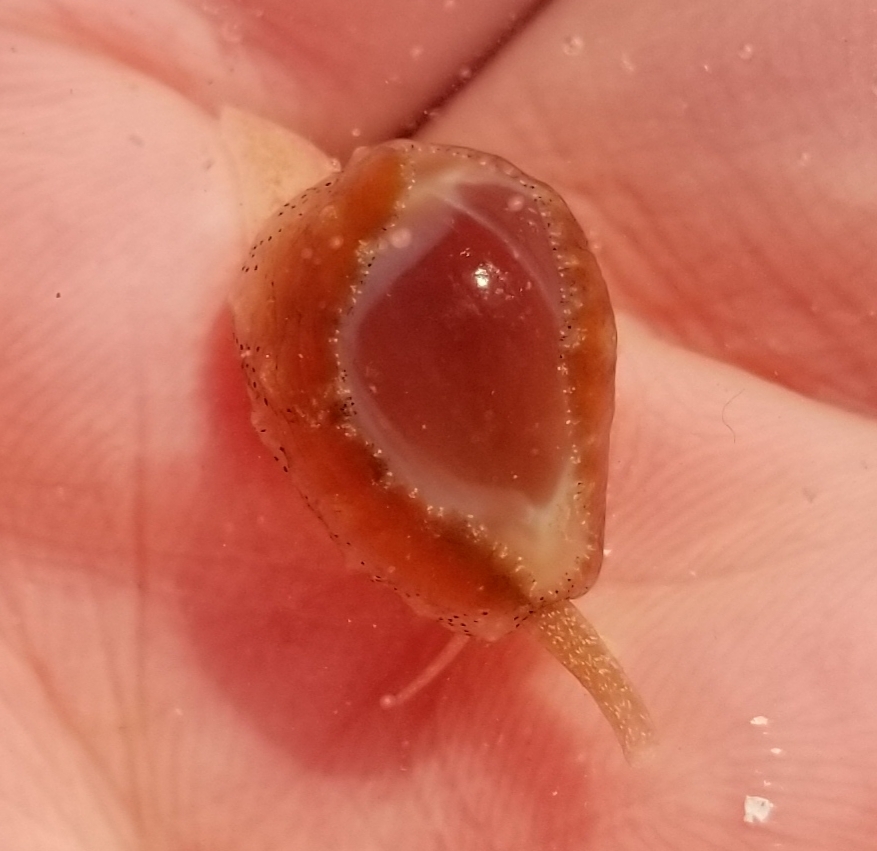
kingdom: Animalia
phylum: Mollusca
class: Gastropoda
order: Littorinimorpha
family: Eratoidae
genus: Hespererato
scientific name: Hespererato vitellina
